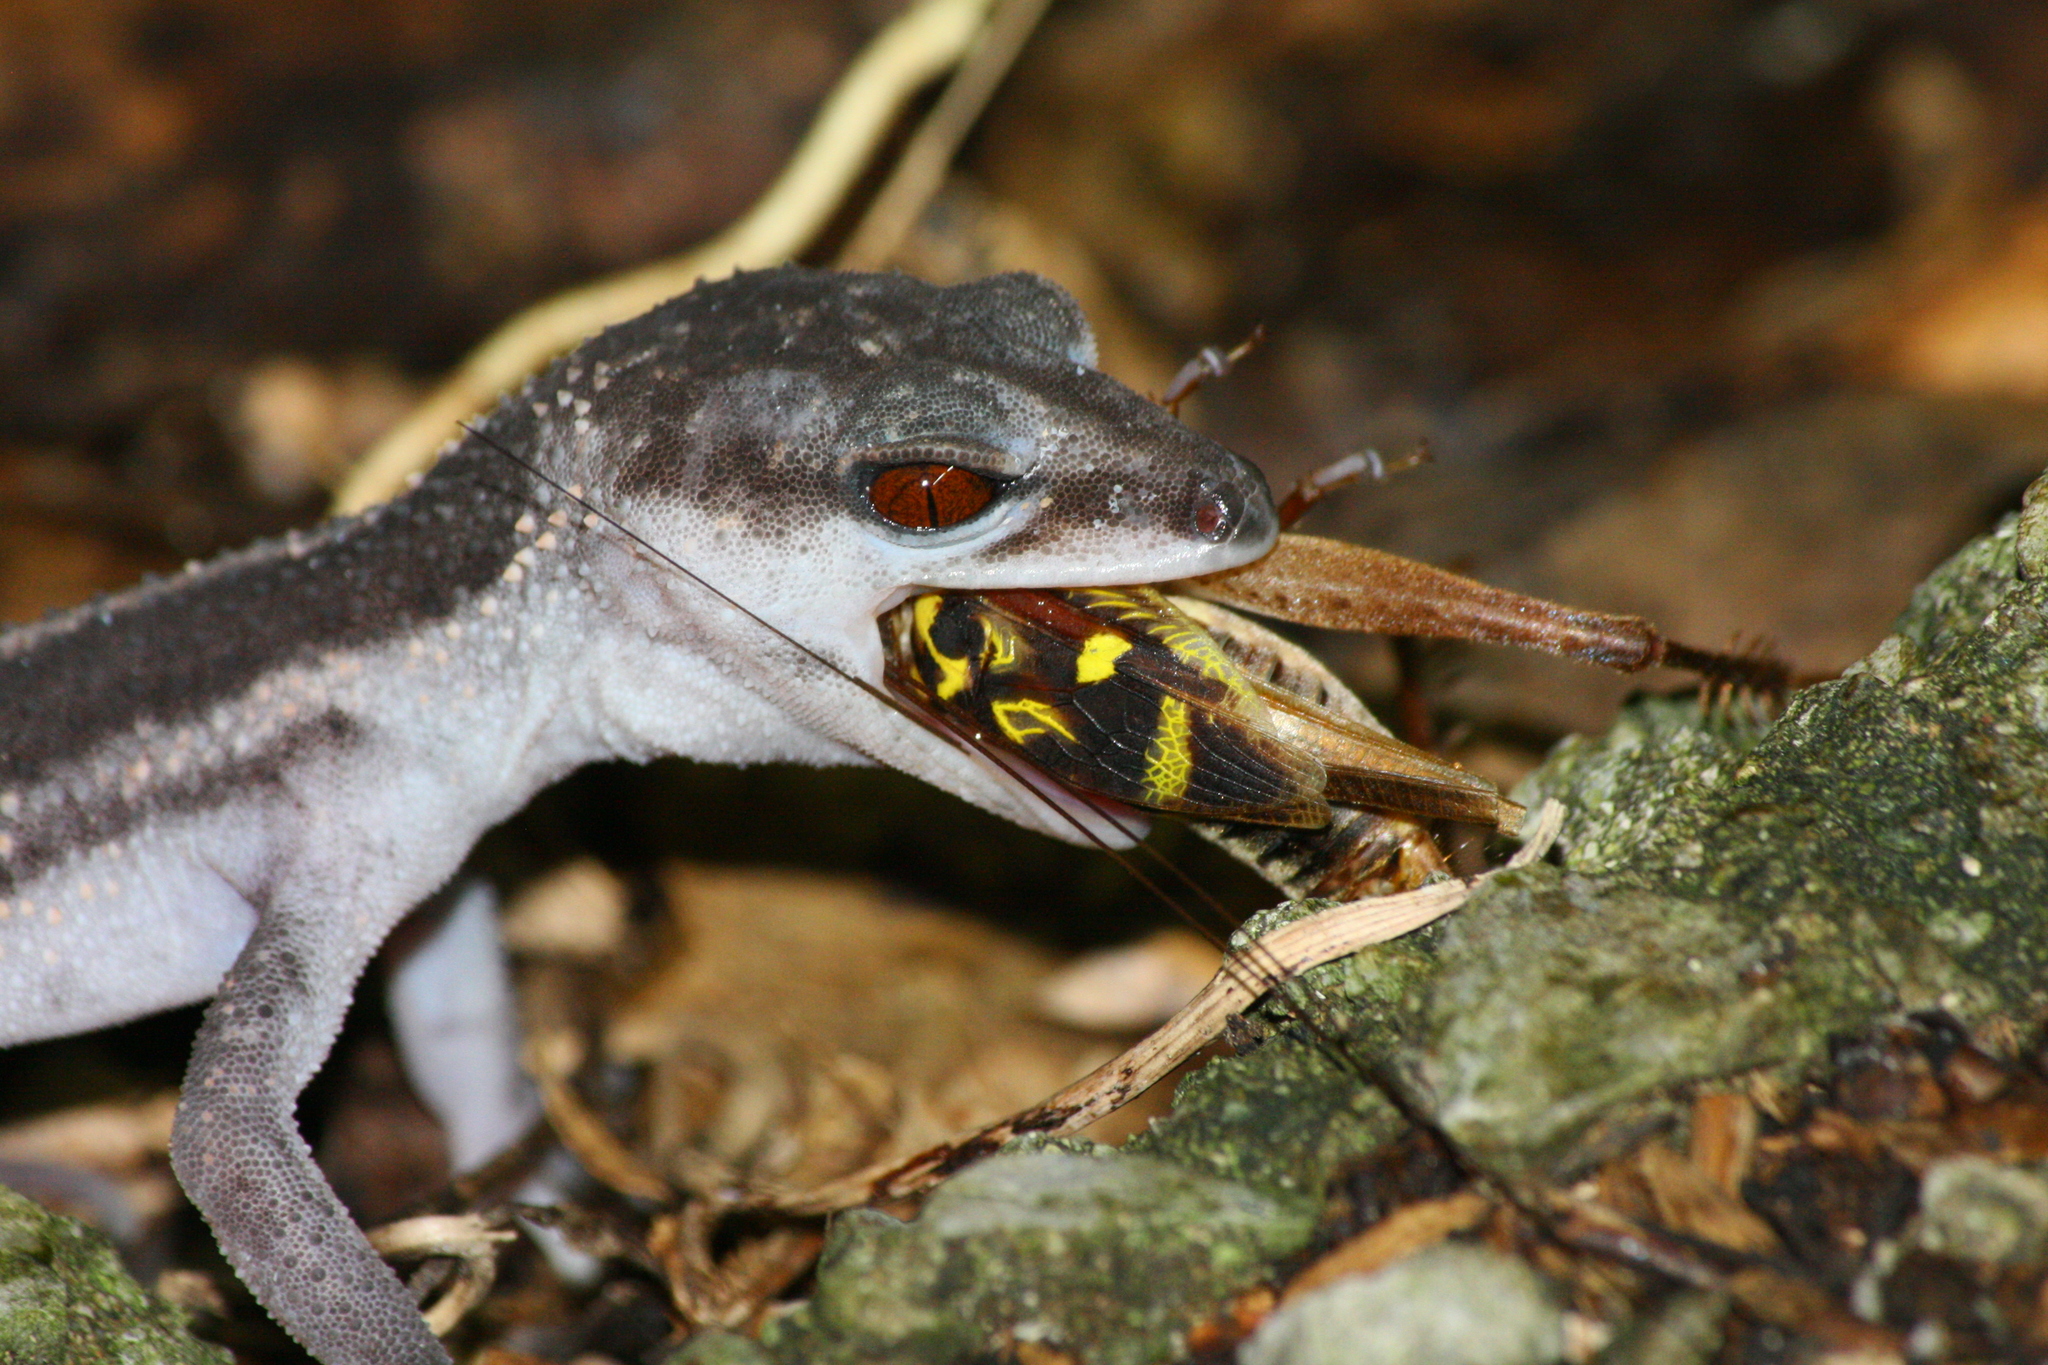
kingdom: Animalia
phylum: Chordata
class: Squamata
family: Eublepharidae
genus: Goniurosaurus
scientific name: Goniurosaurus kuroiwae
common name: Tokashiki gecko
